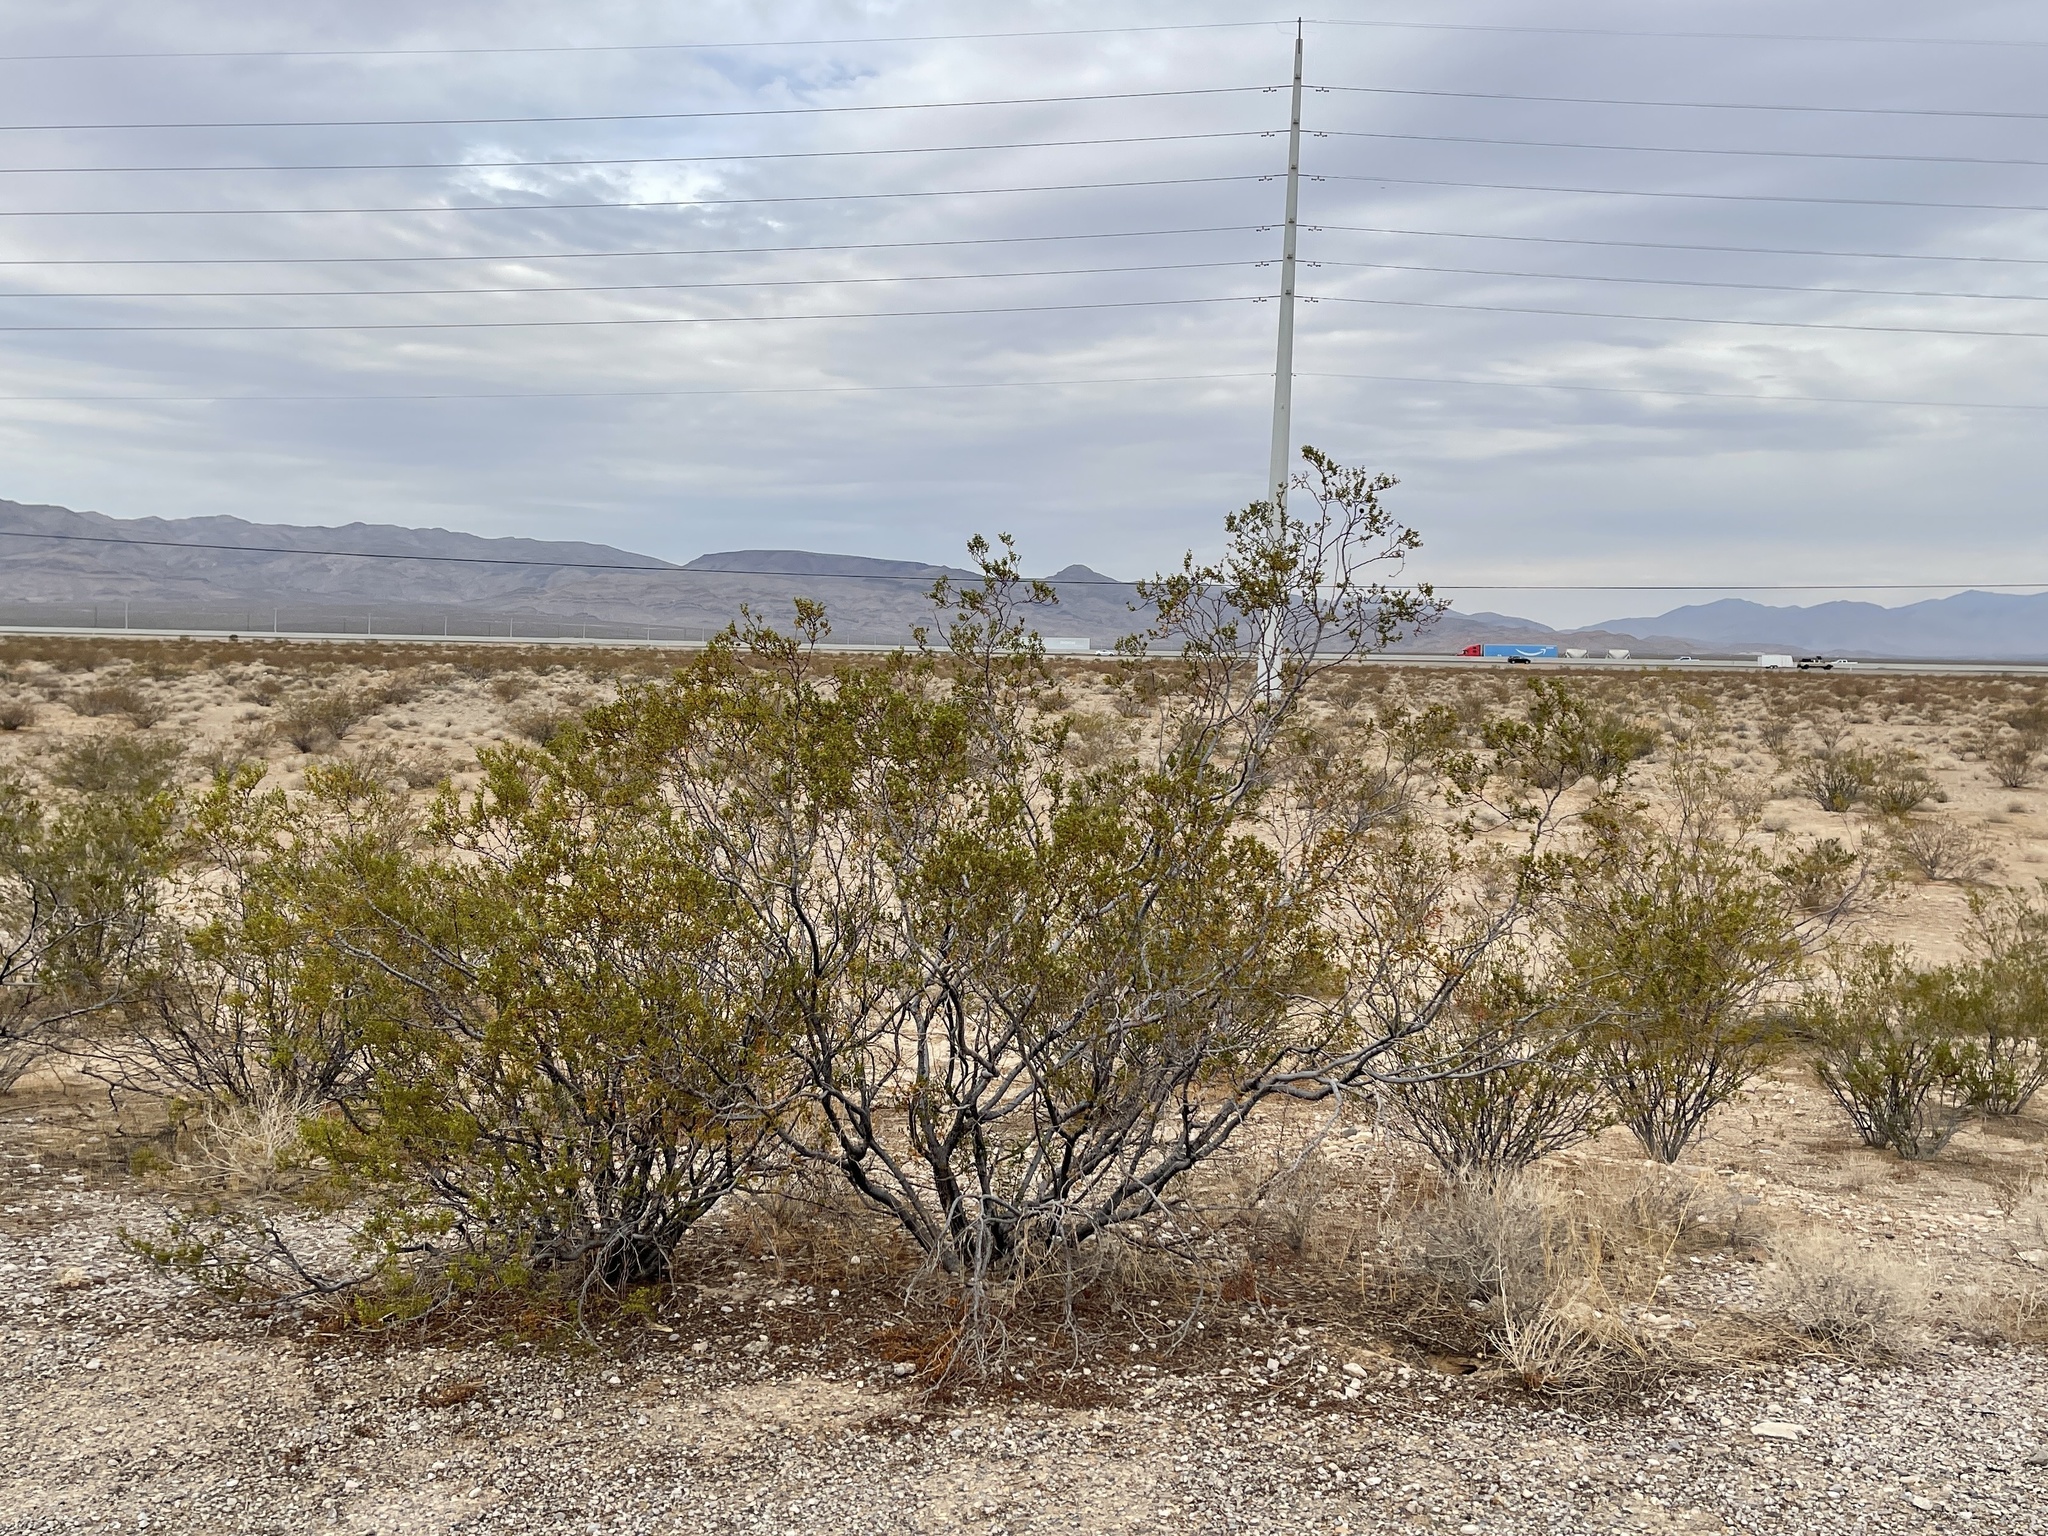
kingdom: Plantae
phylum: Tracheophyta
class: Magnoliopsida
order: Zygophyllales
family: Zygophyllaceae
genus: Larrea
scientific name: Larrea tridentata
